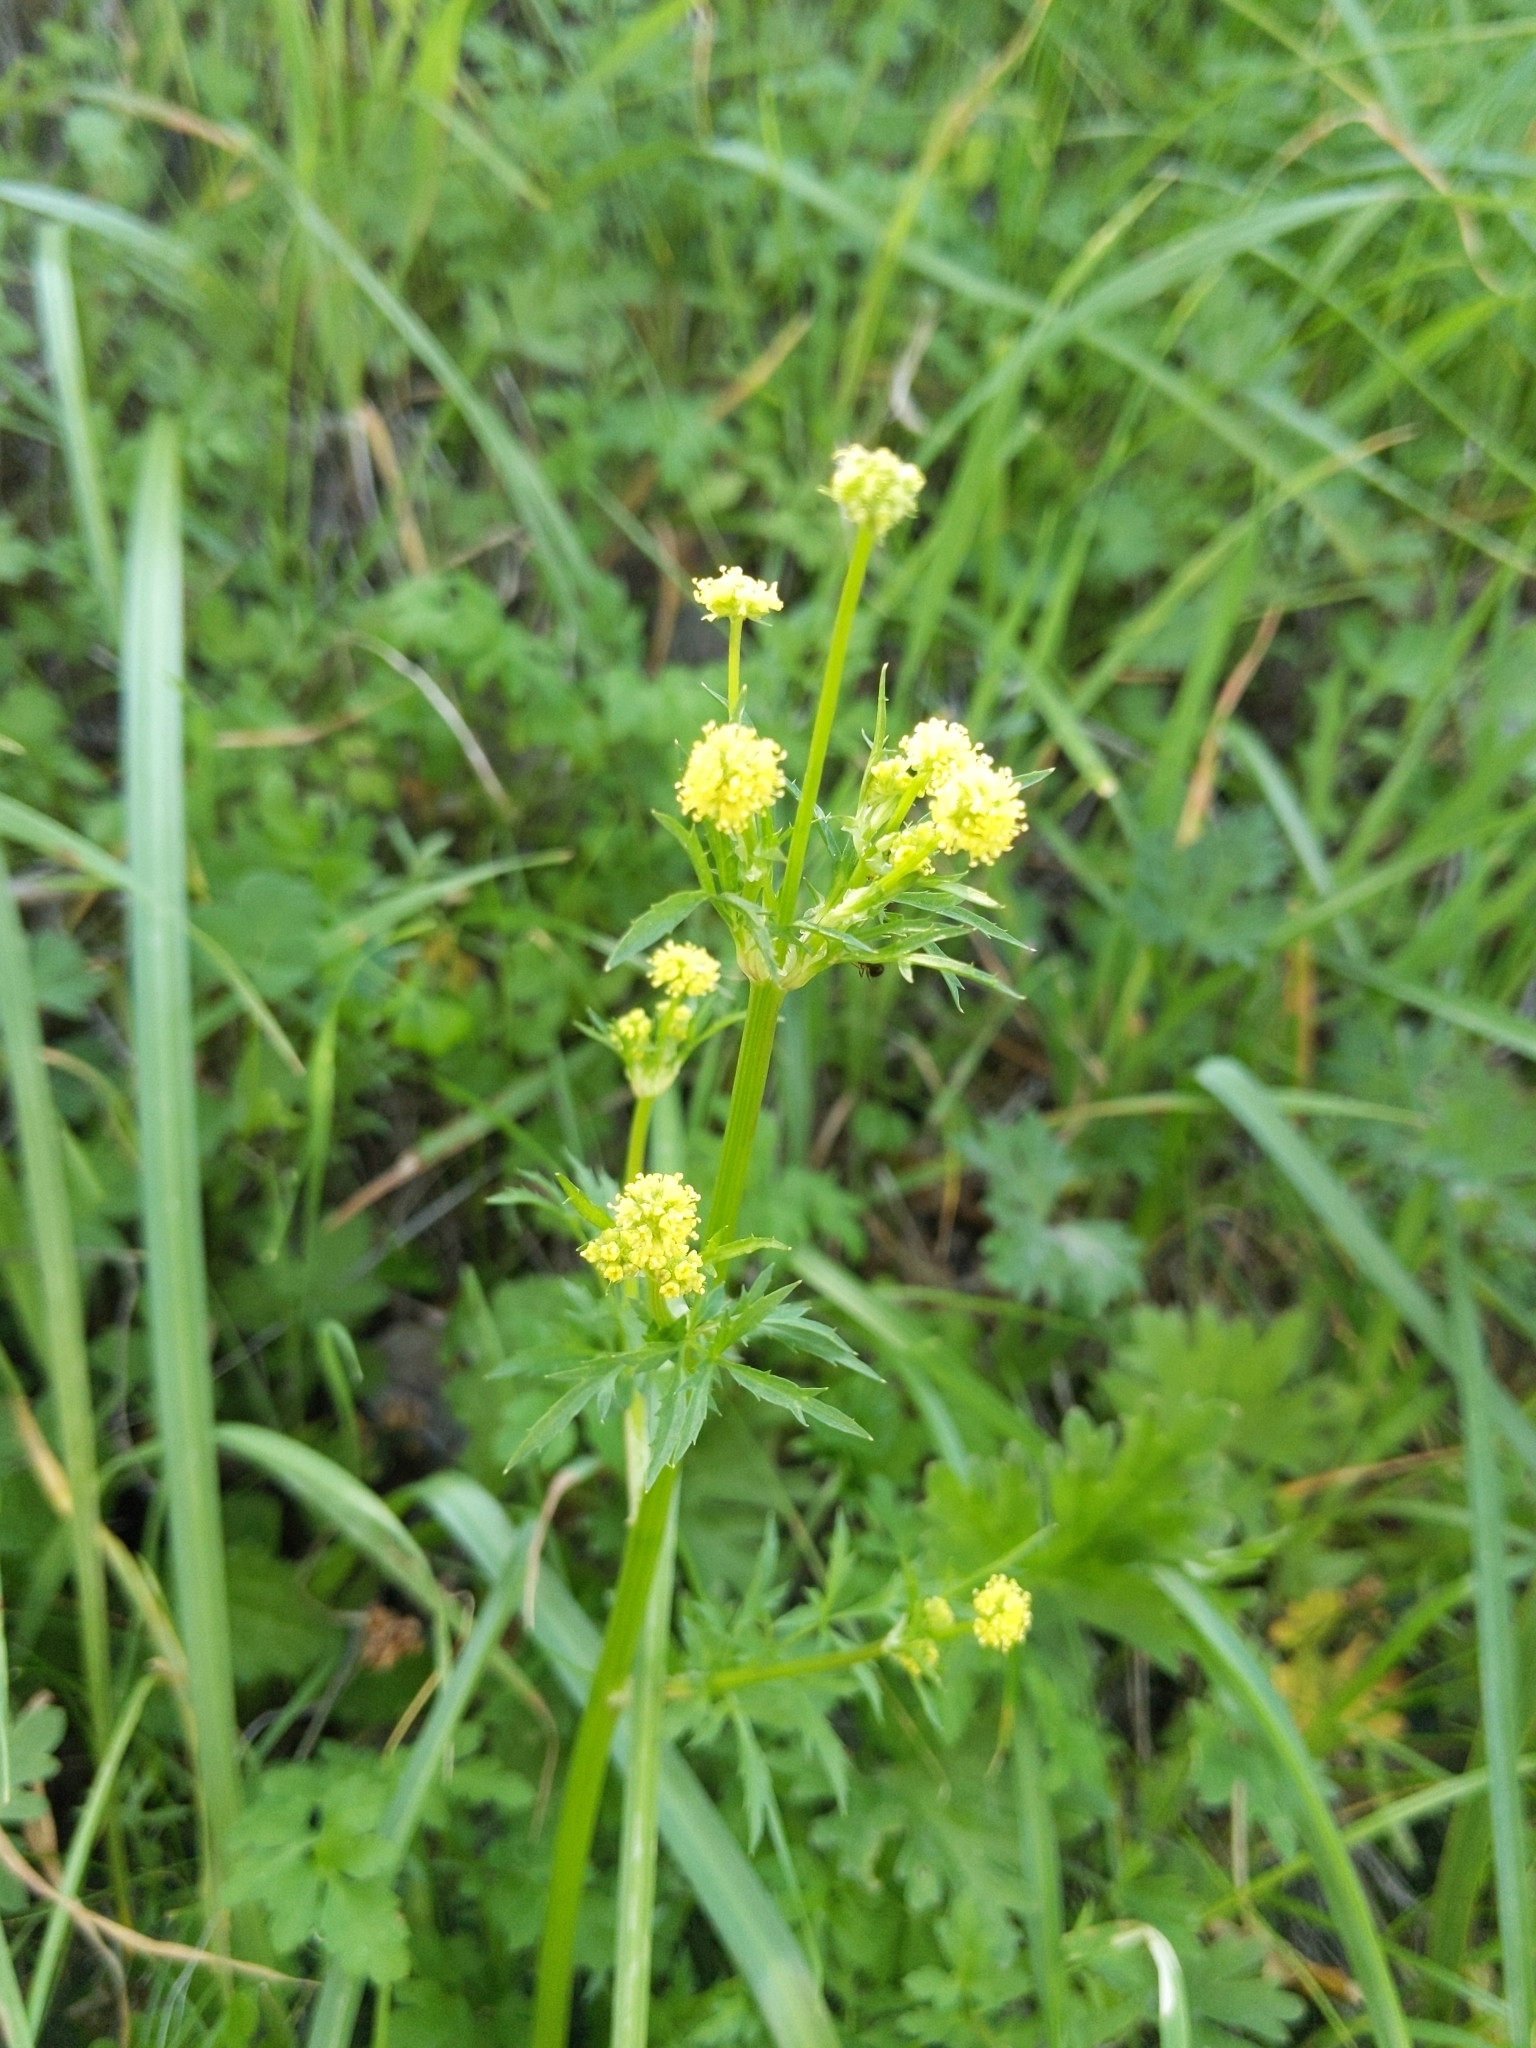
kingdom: Plantae
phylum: Tracheophyta
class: Magnoliopsida
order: Apiales
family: Apiaceae
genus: Sanicula
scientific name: Sanicula bipinnata
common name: Poison sanicle
